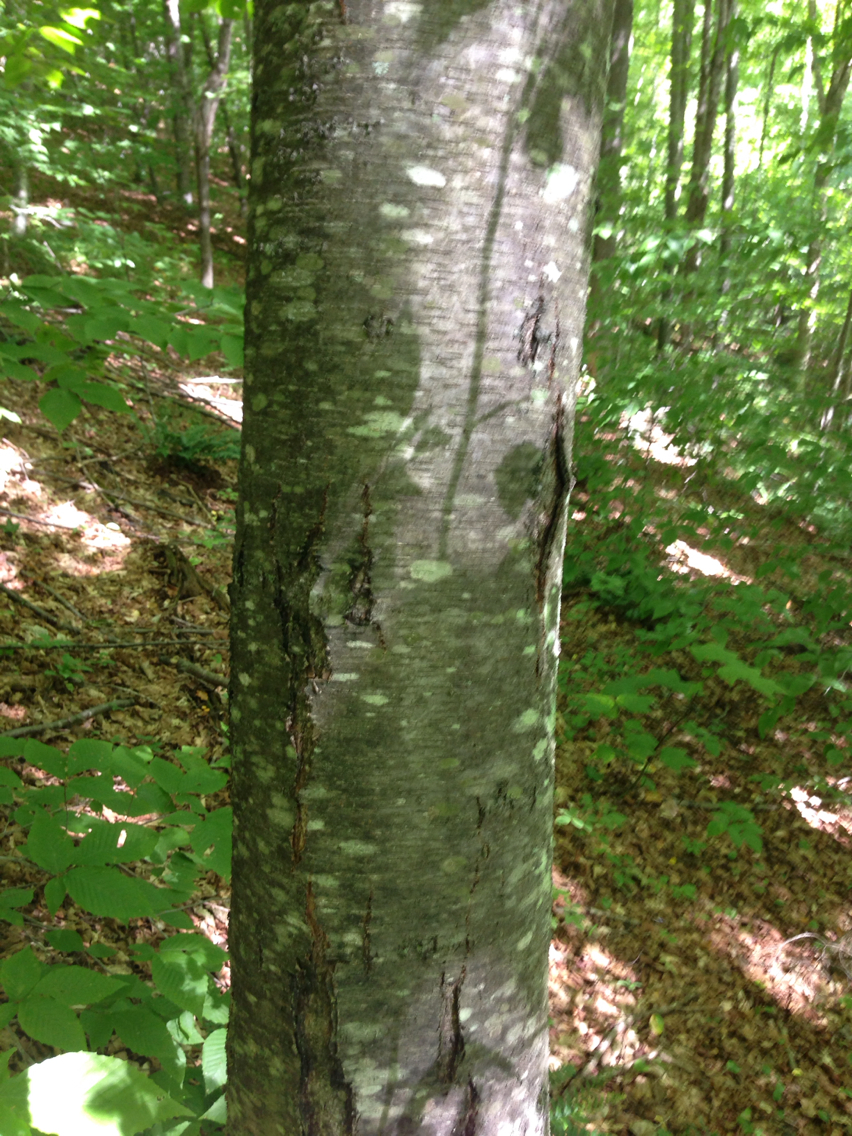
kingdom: Plantae
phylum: Tracheophyta
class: Magnoliopsida
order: Fagales
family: Betulaceae
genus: Betula
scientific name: Betula lenta
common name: Black birch
